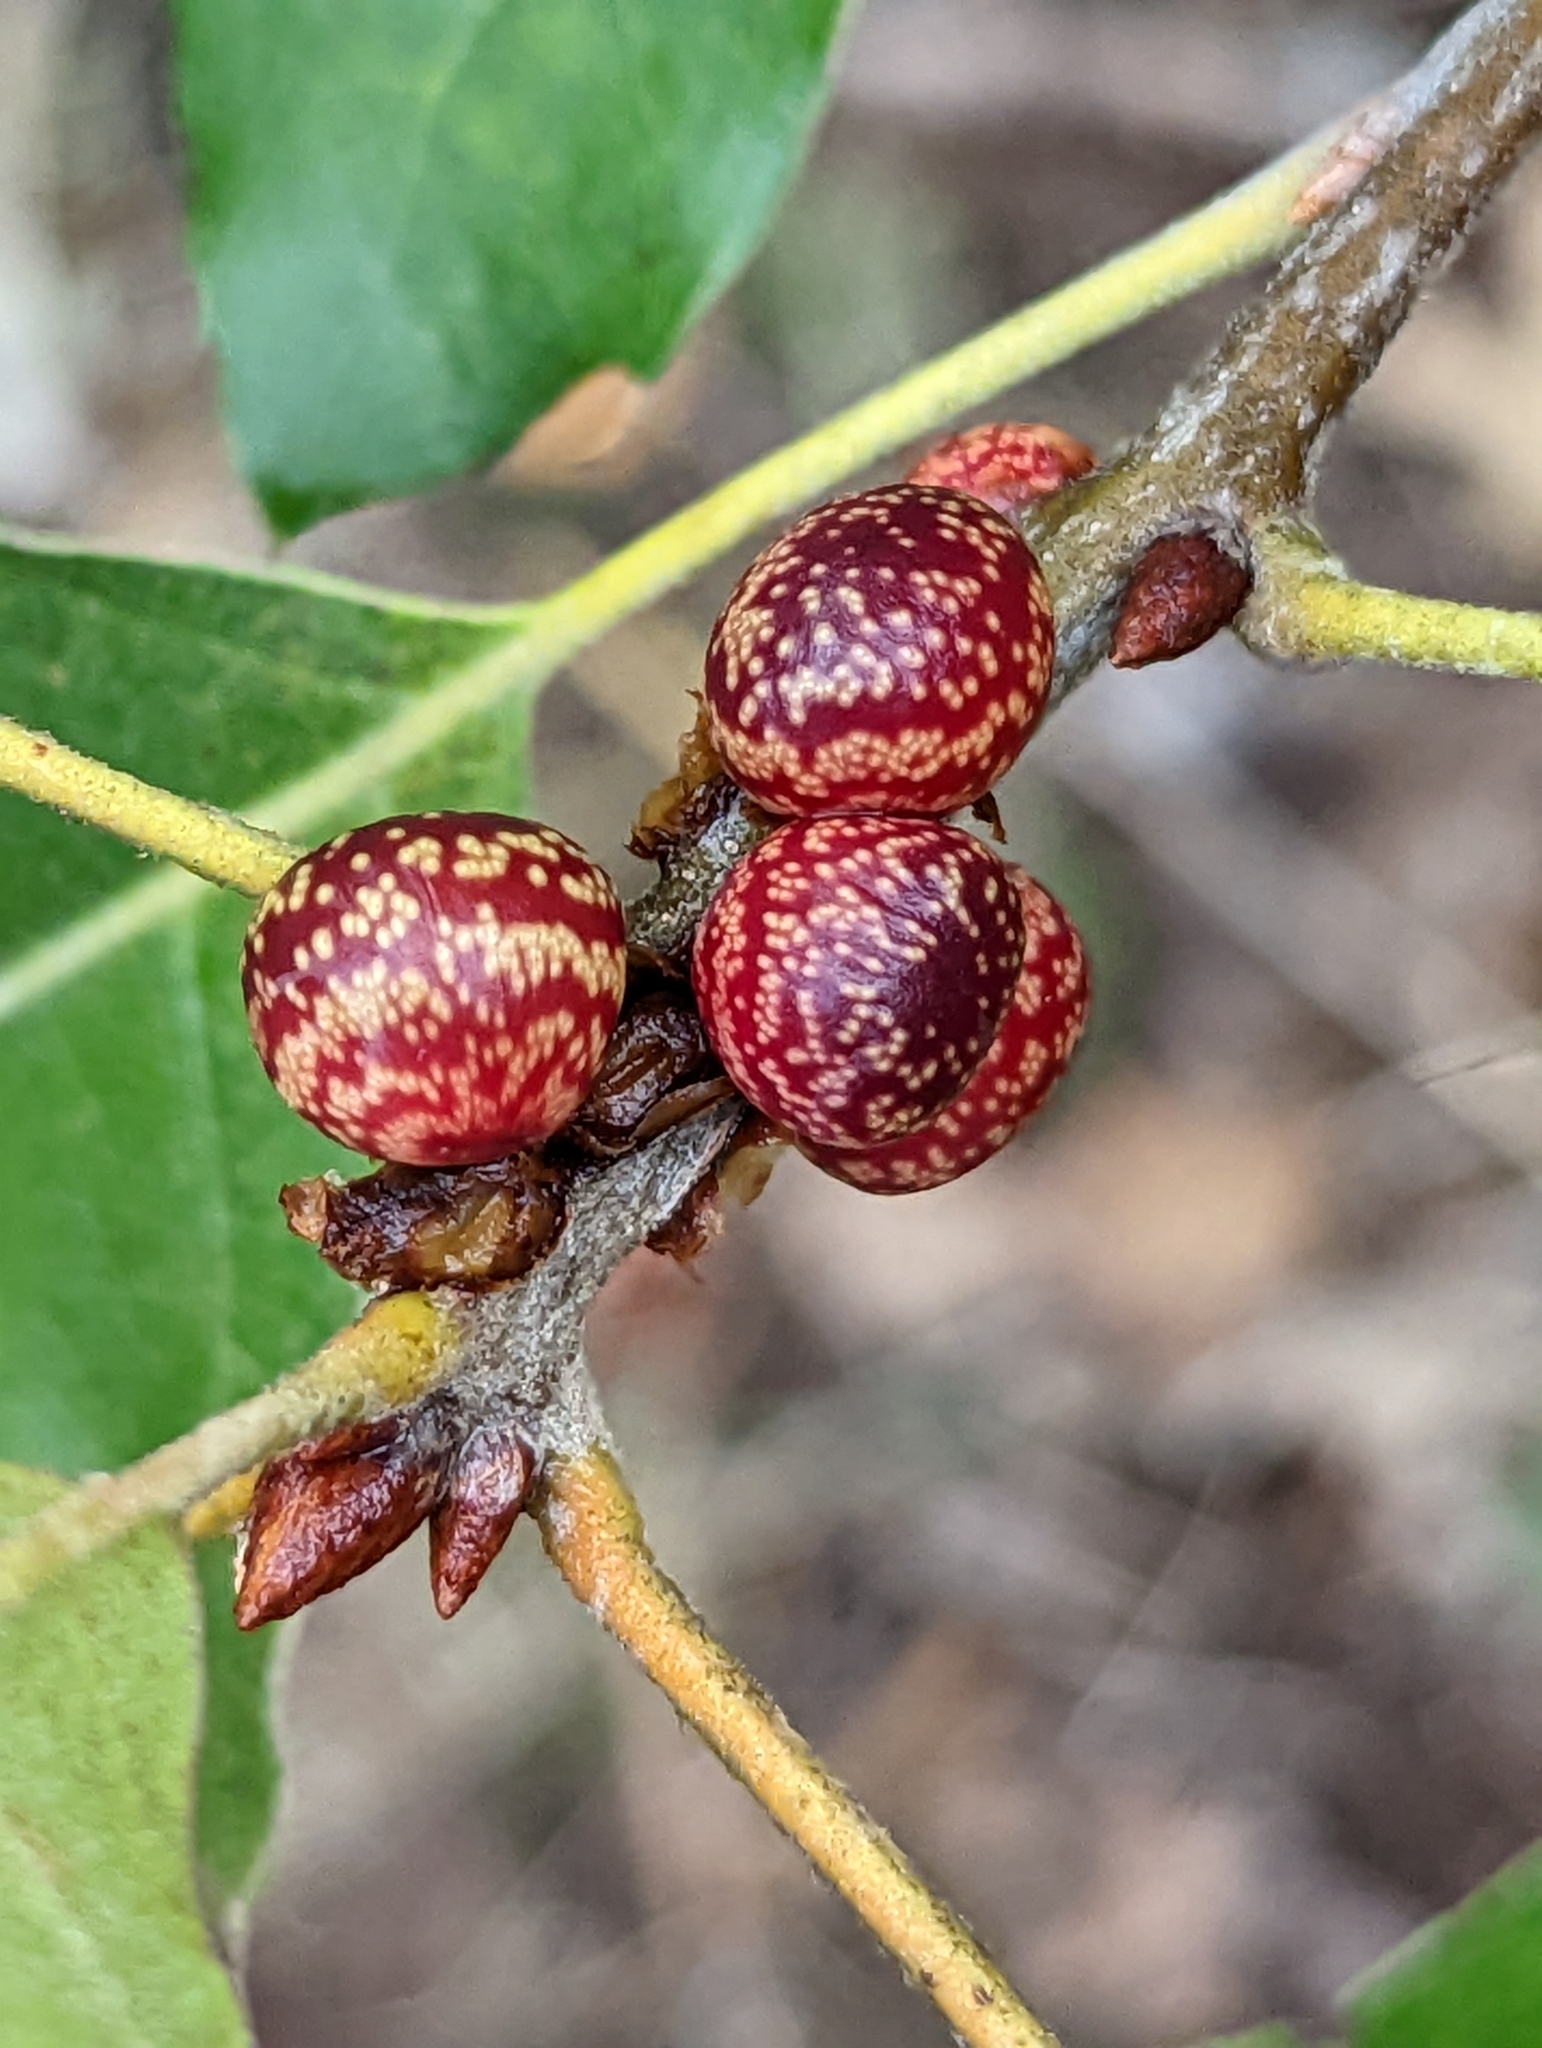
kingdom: Animalia
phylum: Arthropoda
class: Insecta
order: Hymenoptera
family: Cynipidae
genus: Kokkocynips
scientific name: Kokkocynips imbricariae
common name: Banded bullet gall wasp
